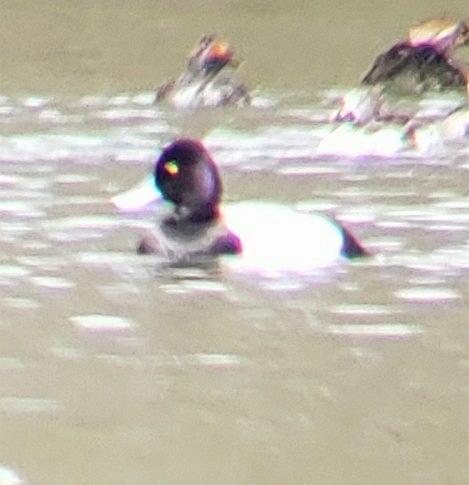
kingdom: Animalia
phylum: Chordata
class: Aves
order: Anseriformes
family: Anatidae
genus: Aythya
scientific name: Aythya affinis
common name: Lesser scaup
